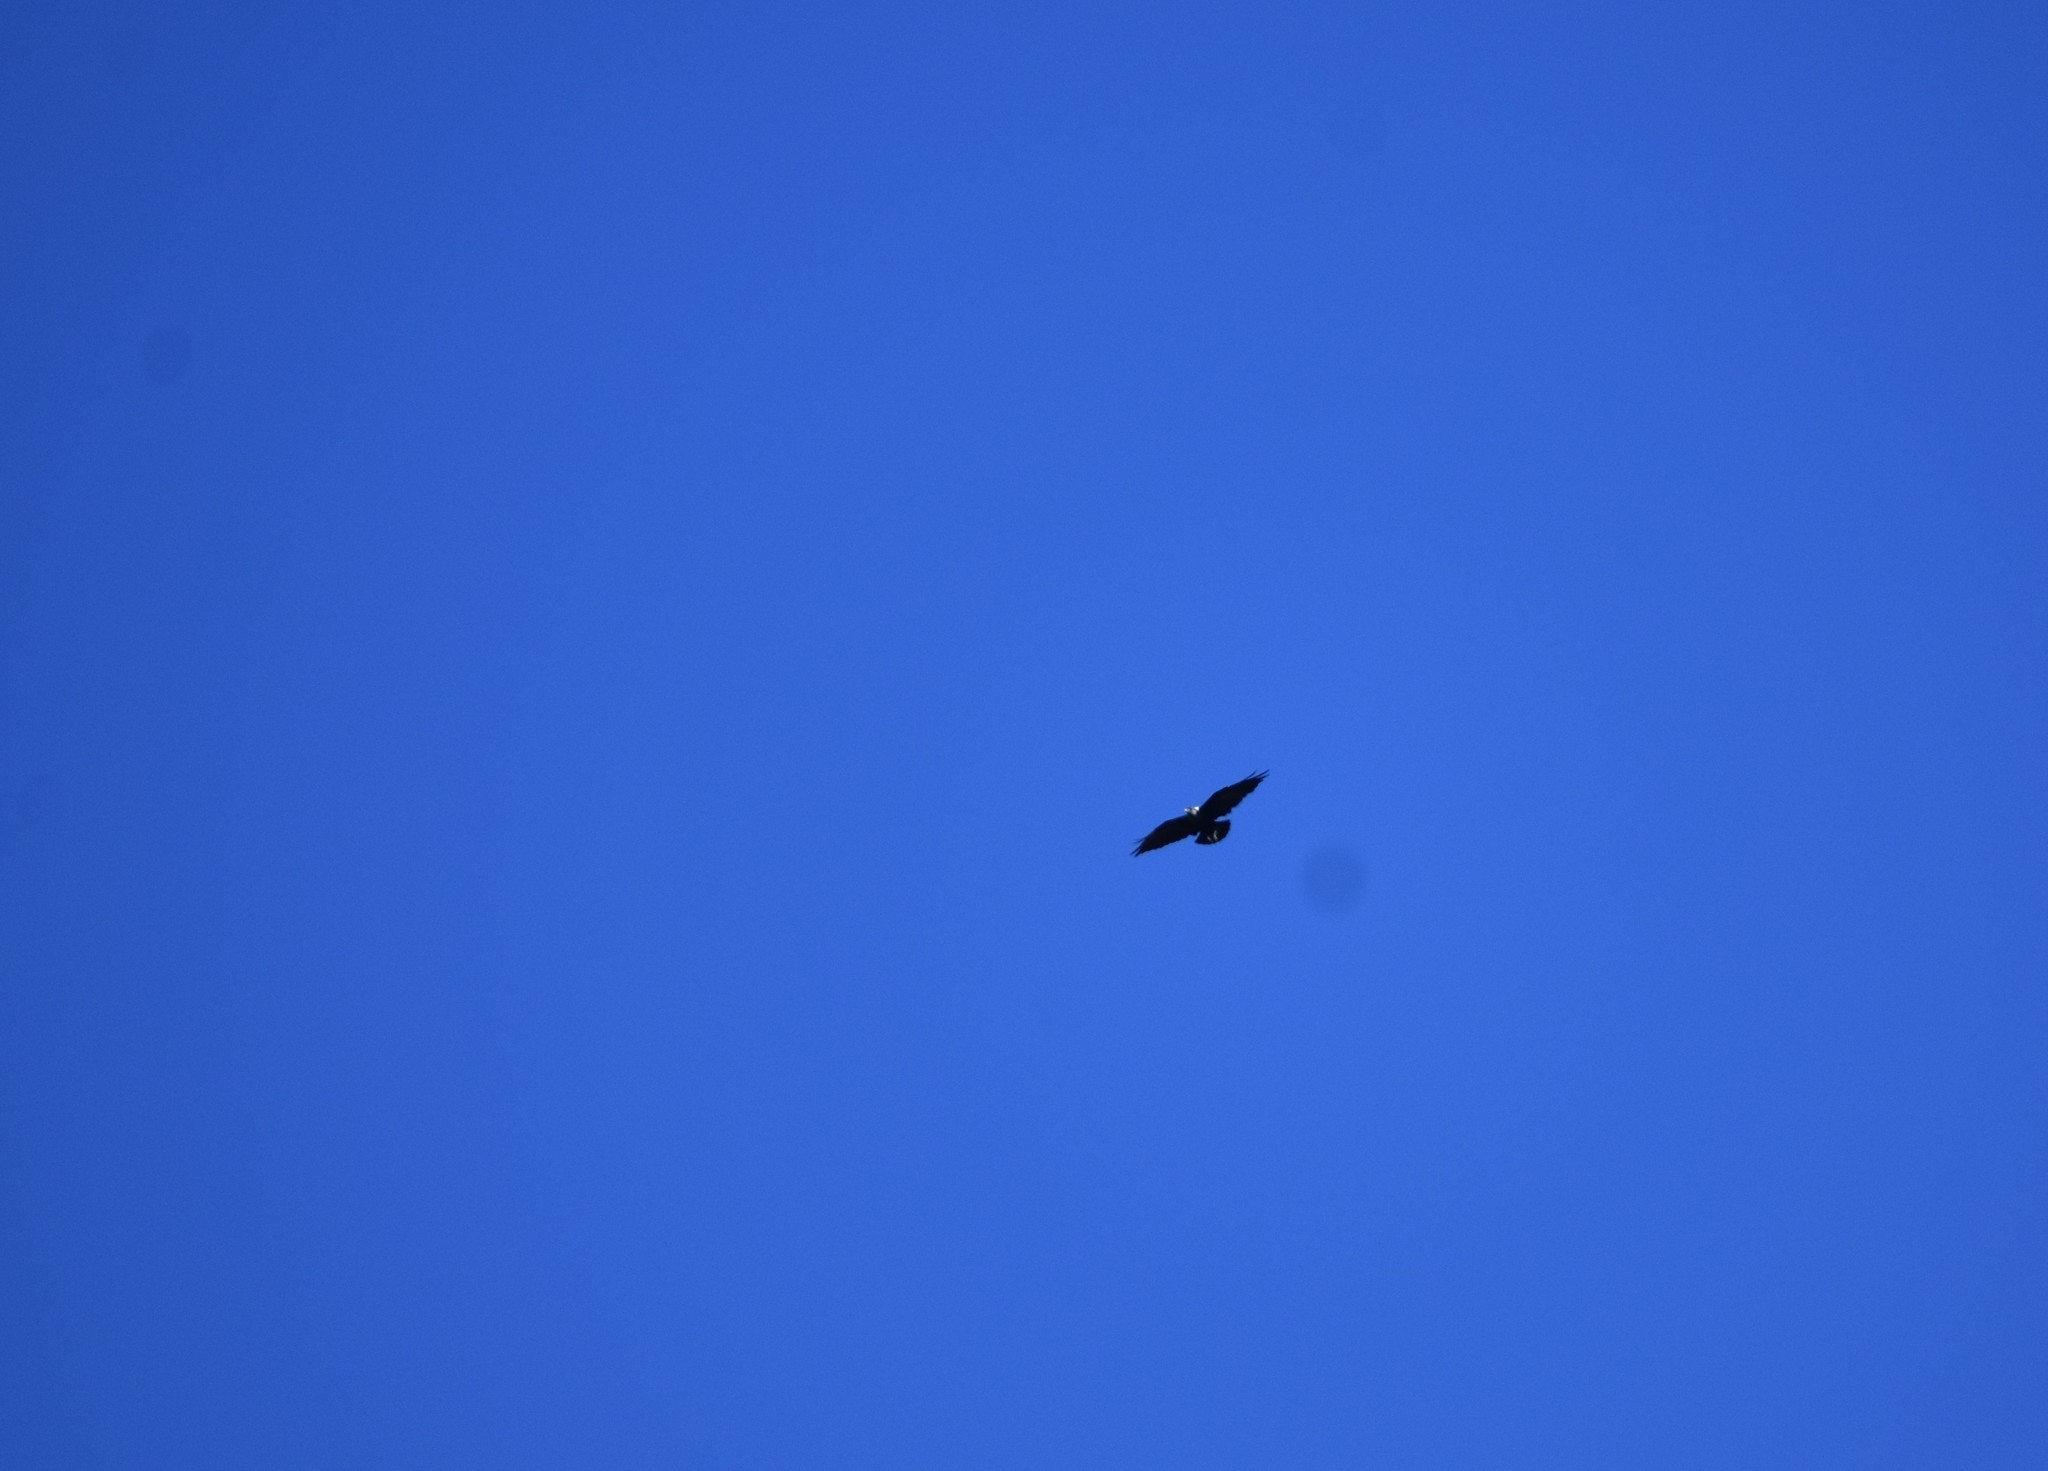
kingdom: Animalia
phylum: Chordata
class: Aves
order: Passeriformes
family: Corvidae
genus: Corvus
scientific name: Corvus albicollis
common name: White-necked raven
